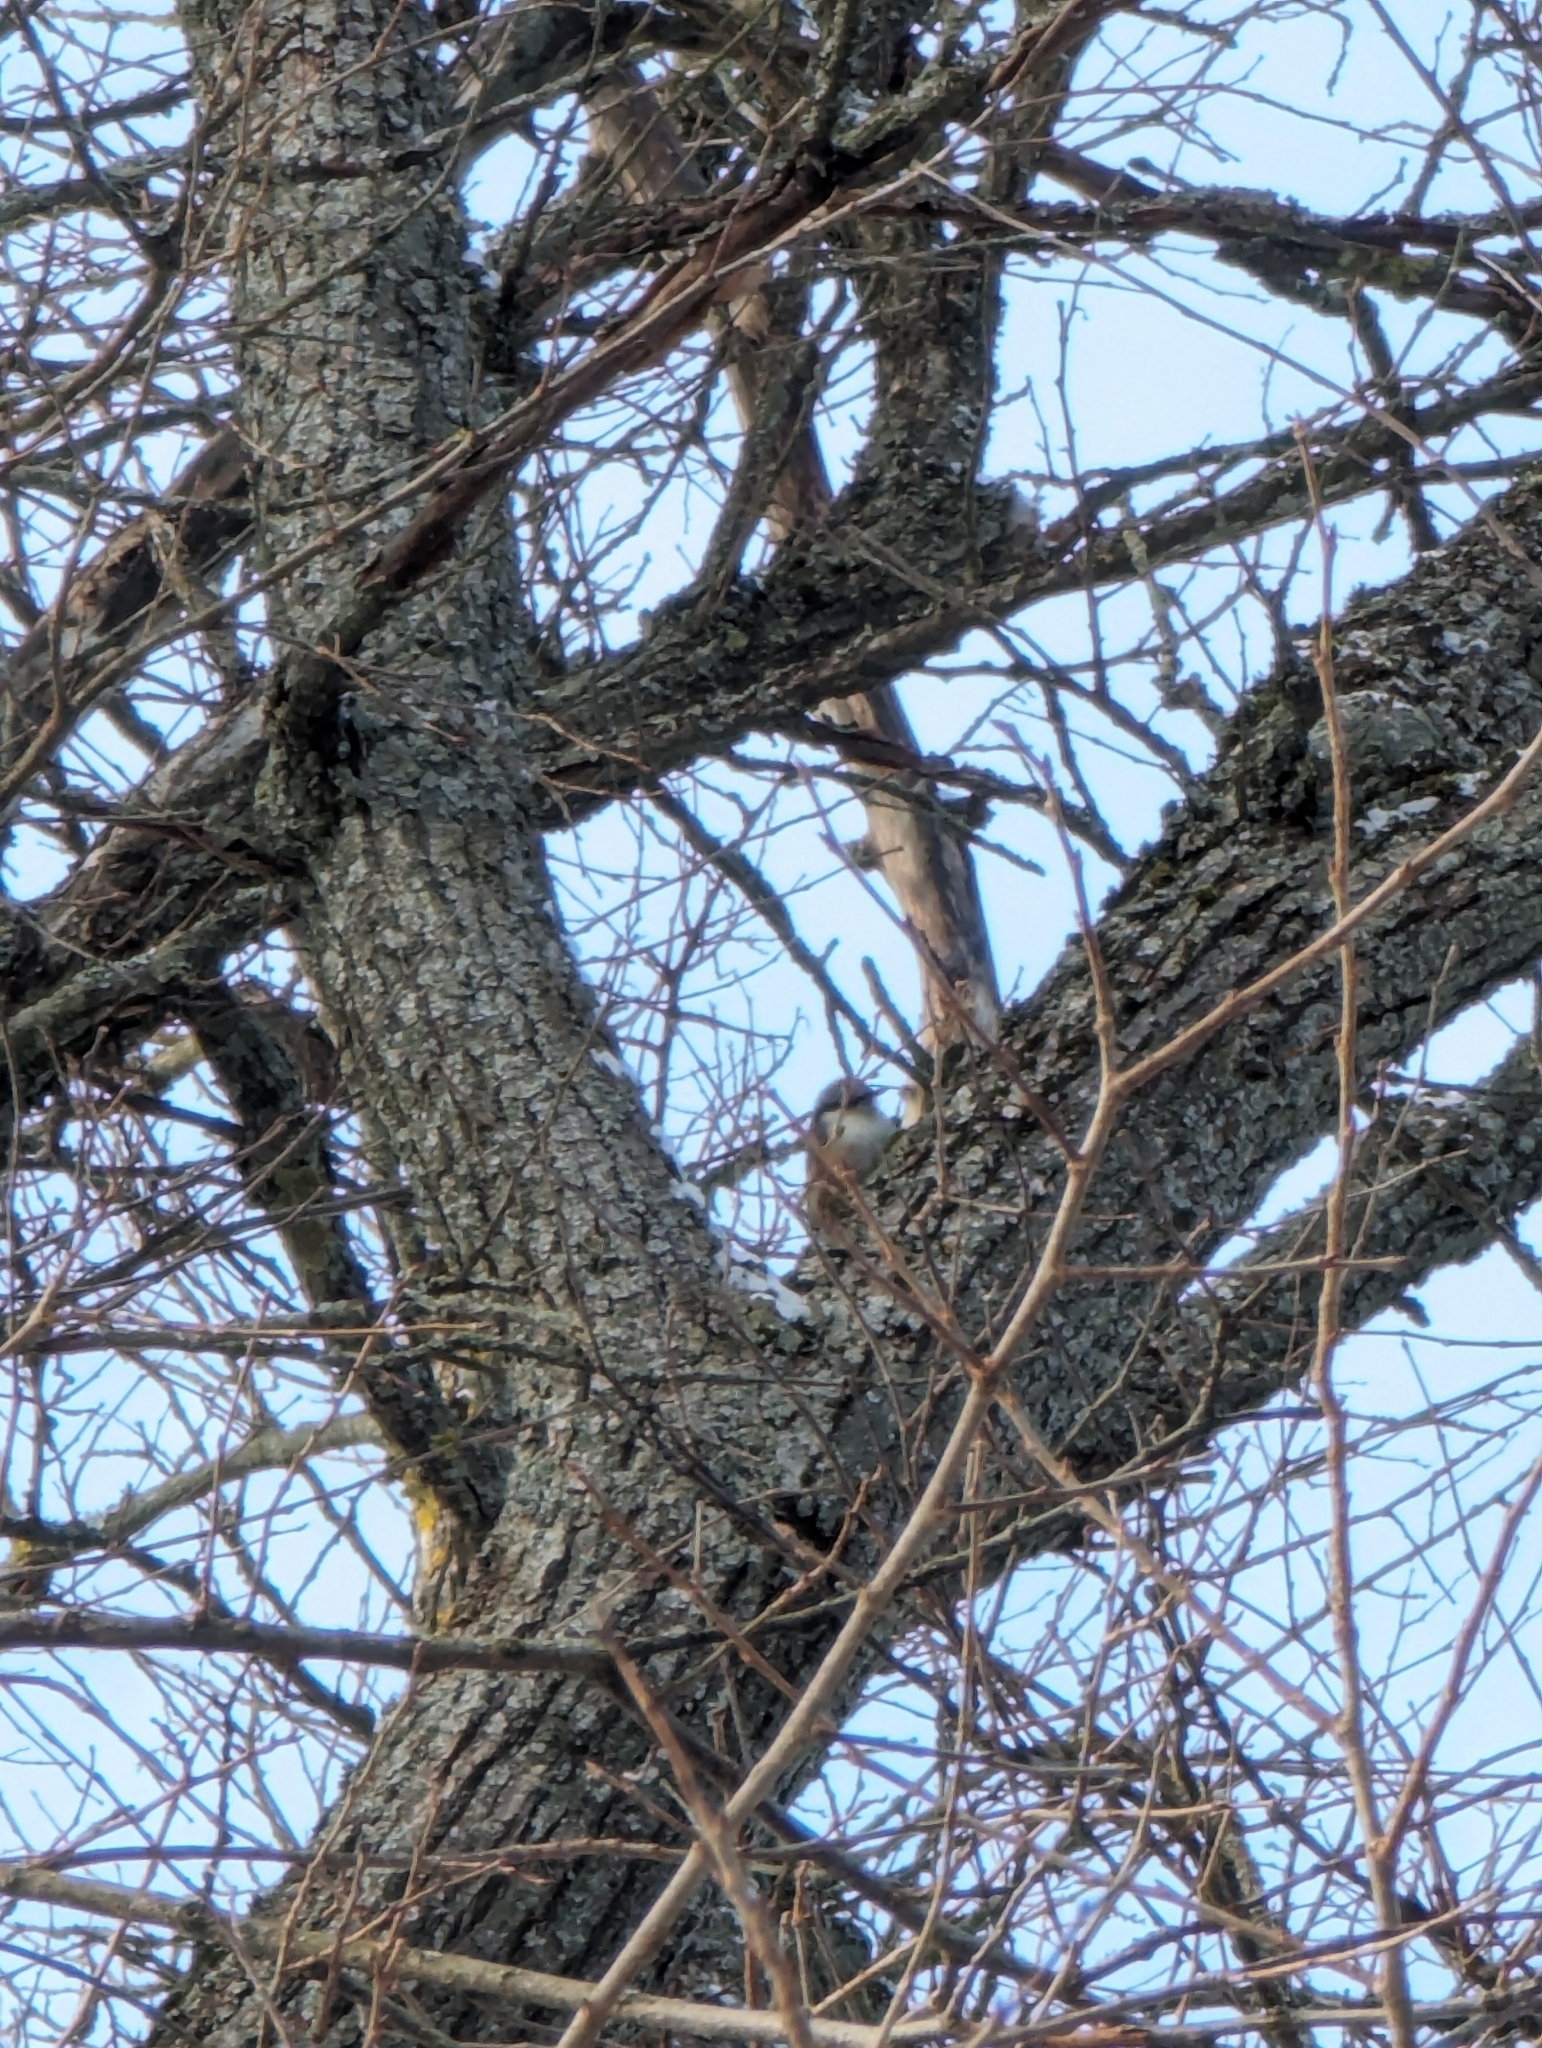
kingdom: Animalia
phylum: Chordata
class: Aves
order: Passeriformes
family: Sittidae
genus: Sitta
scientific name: Sitta europaea
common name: Eurasian nuthatch
